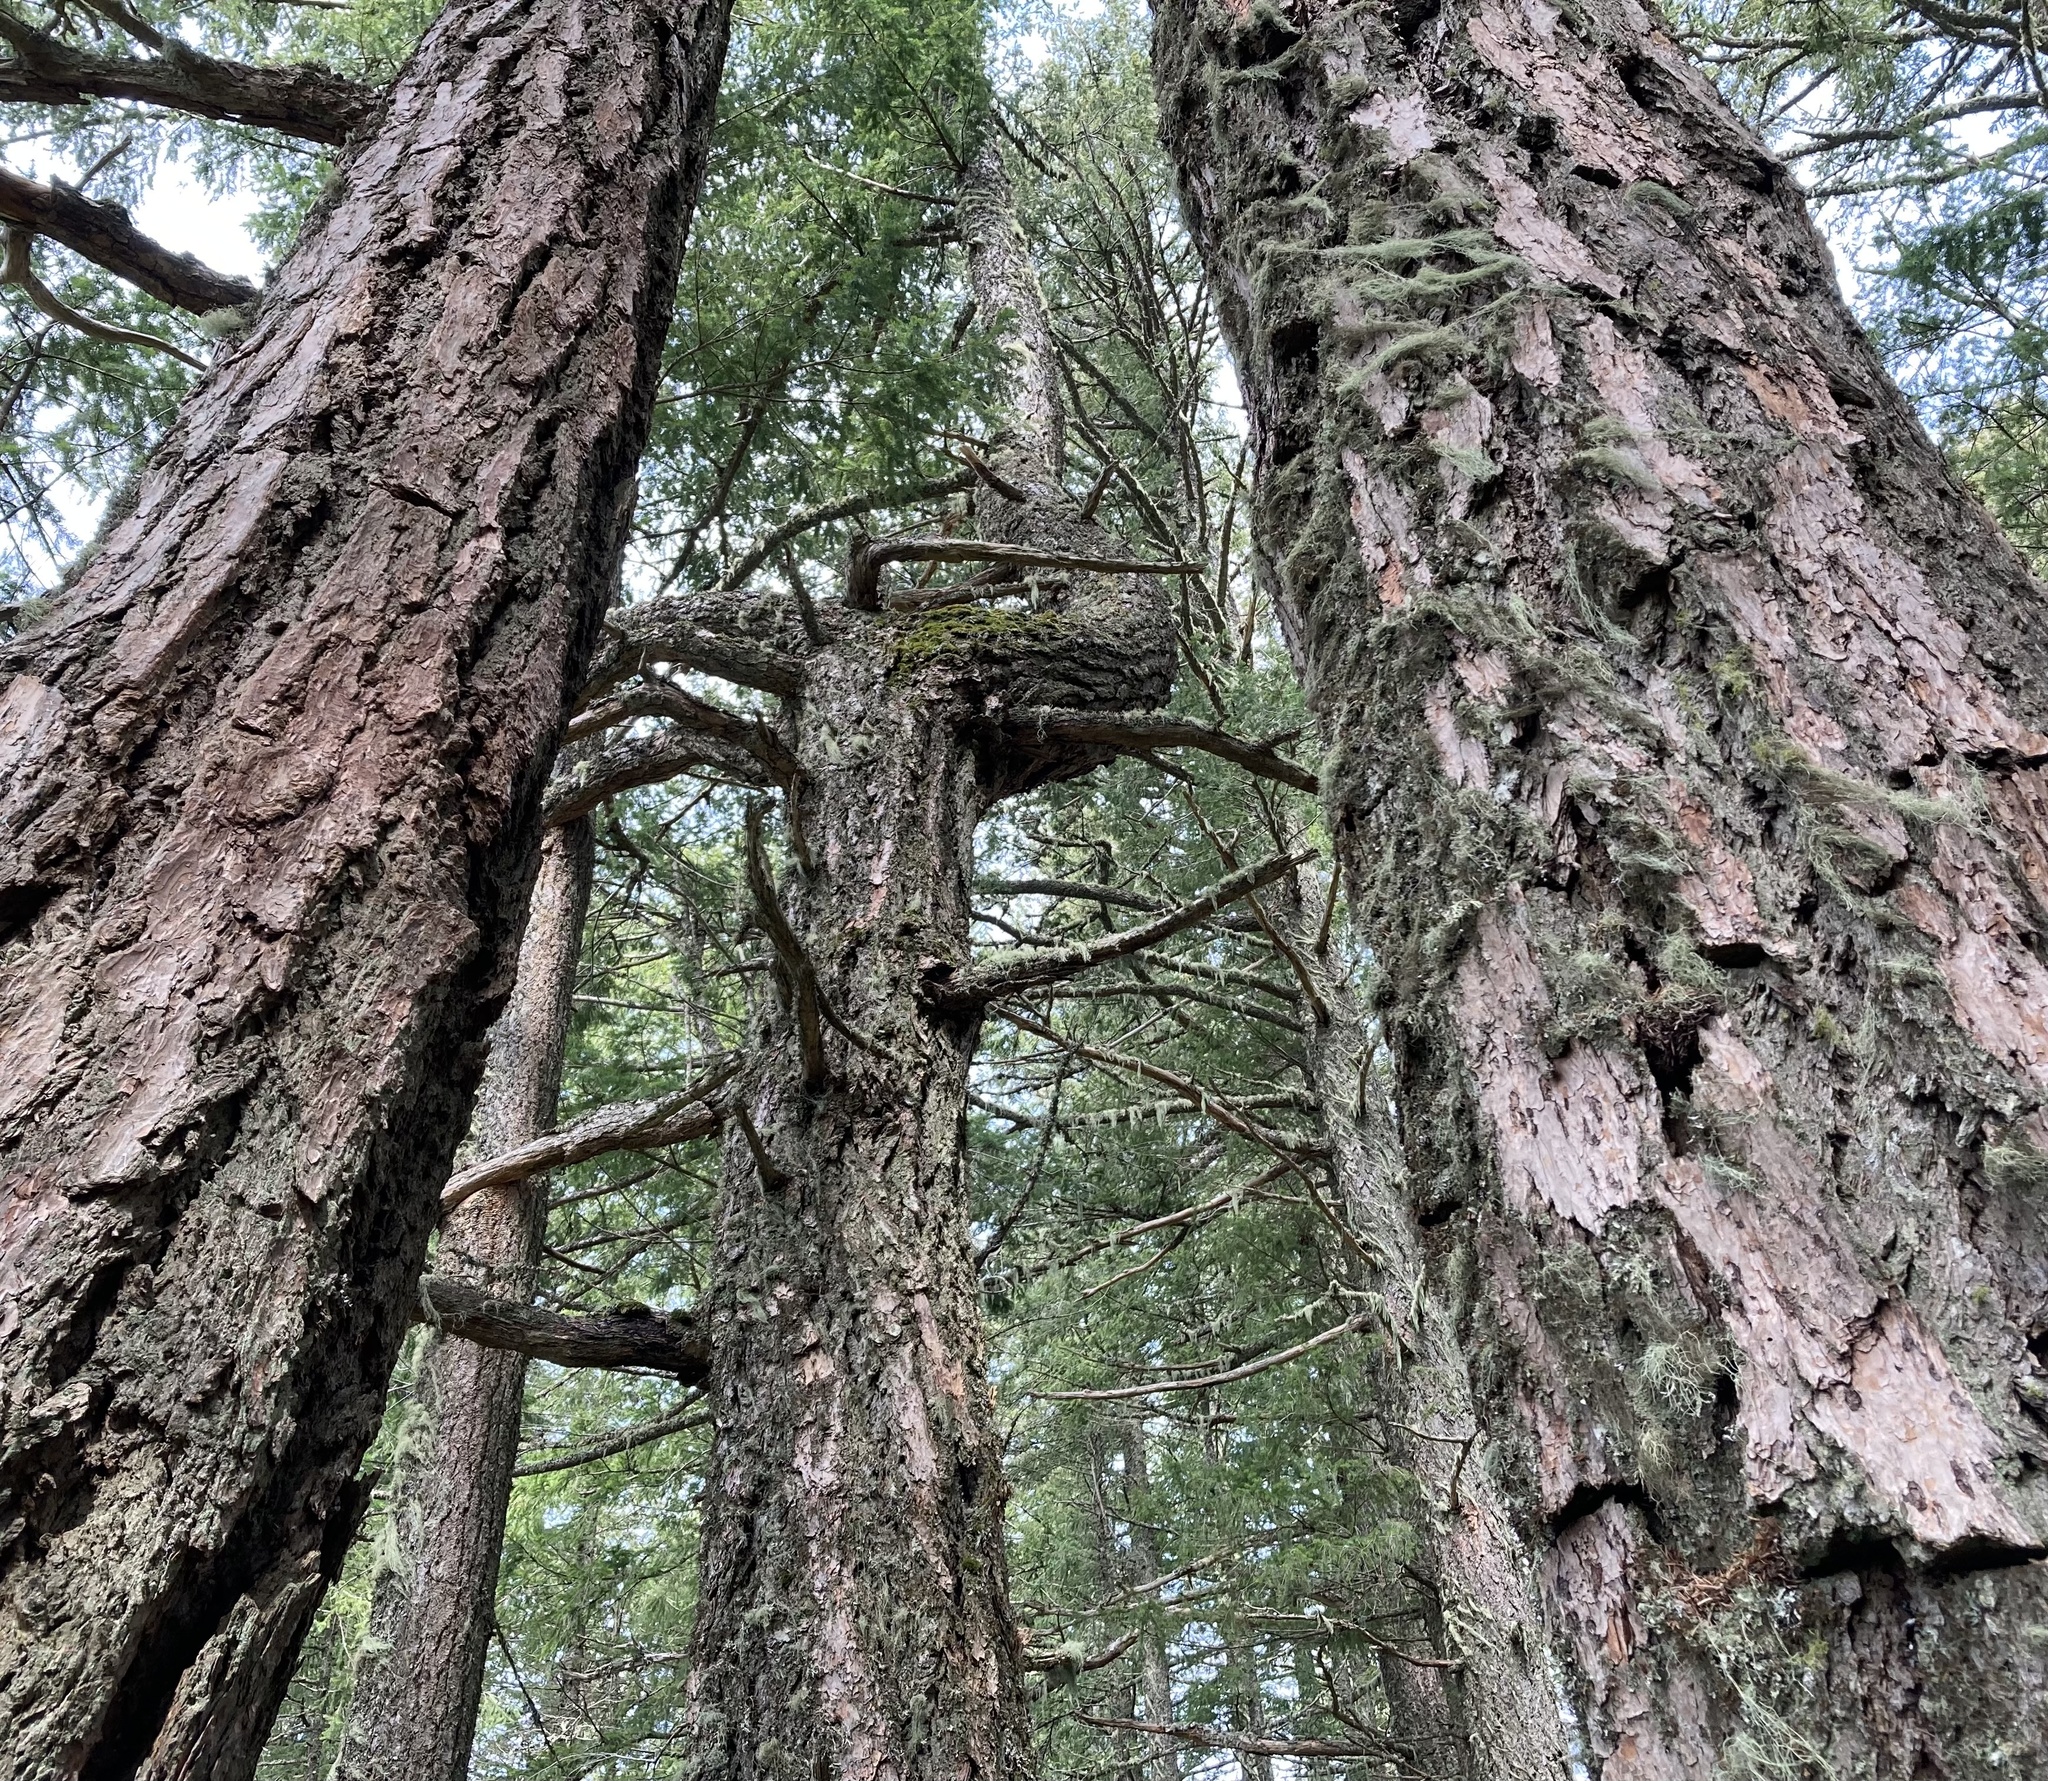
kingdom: Plantae
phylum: Tracheophyta
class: Pinopsida
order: Pinales
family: Pinaceae
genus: Pseudotsuga
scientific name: Pseudotsuga menziesii
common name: Douglas fir
